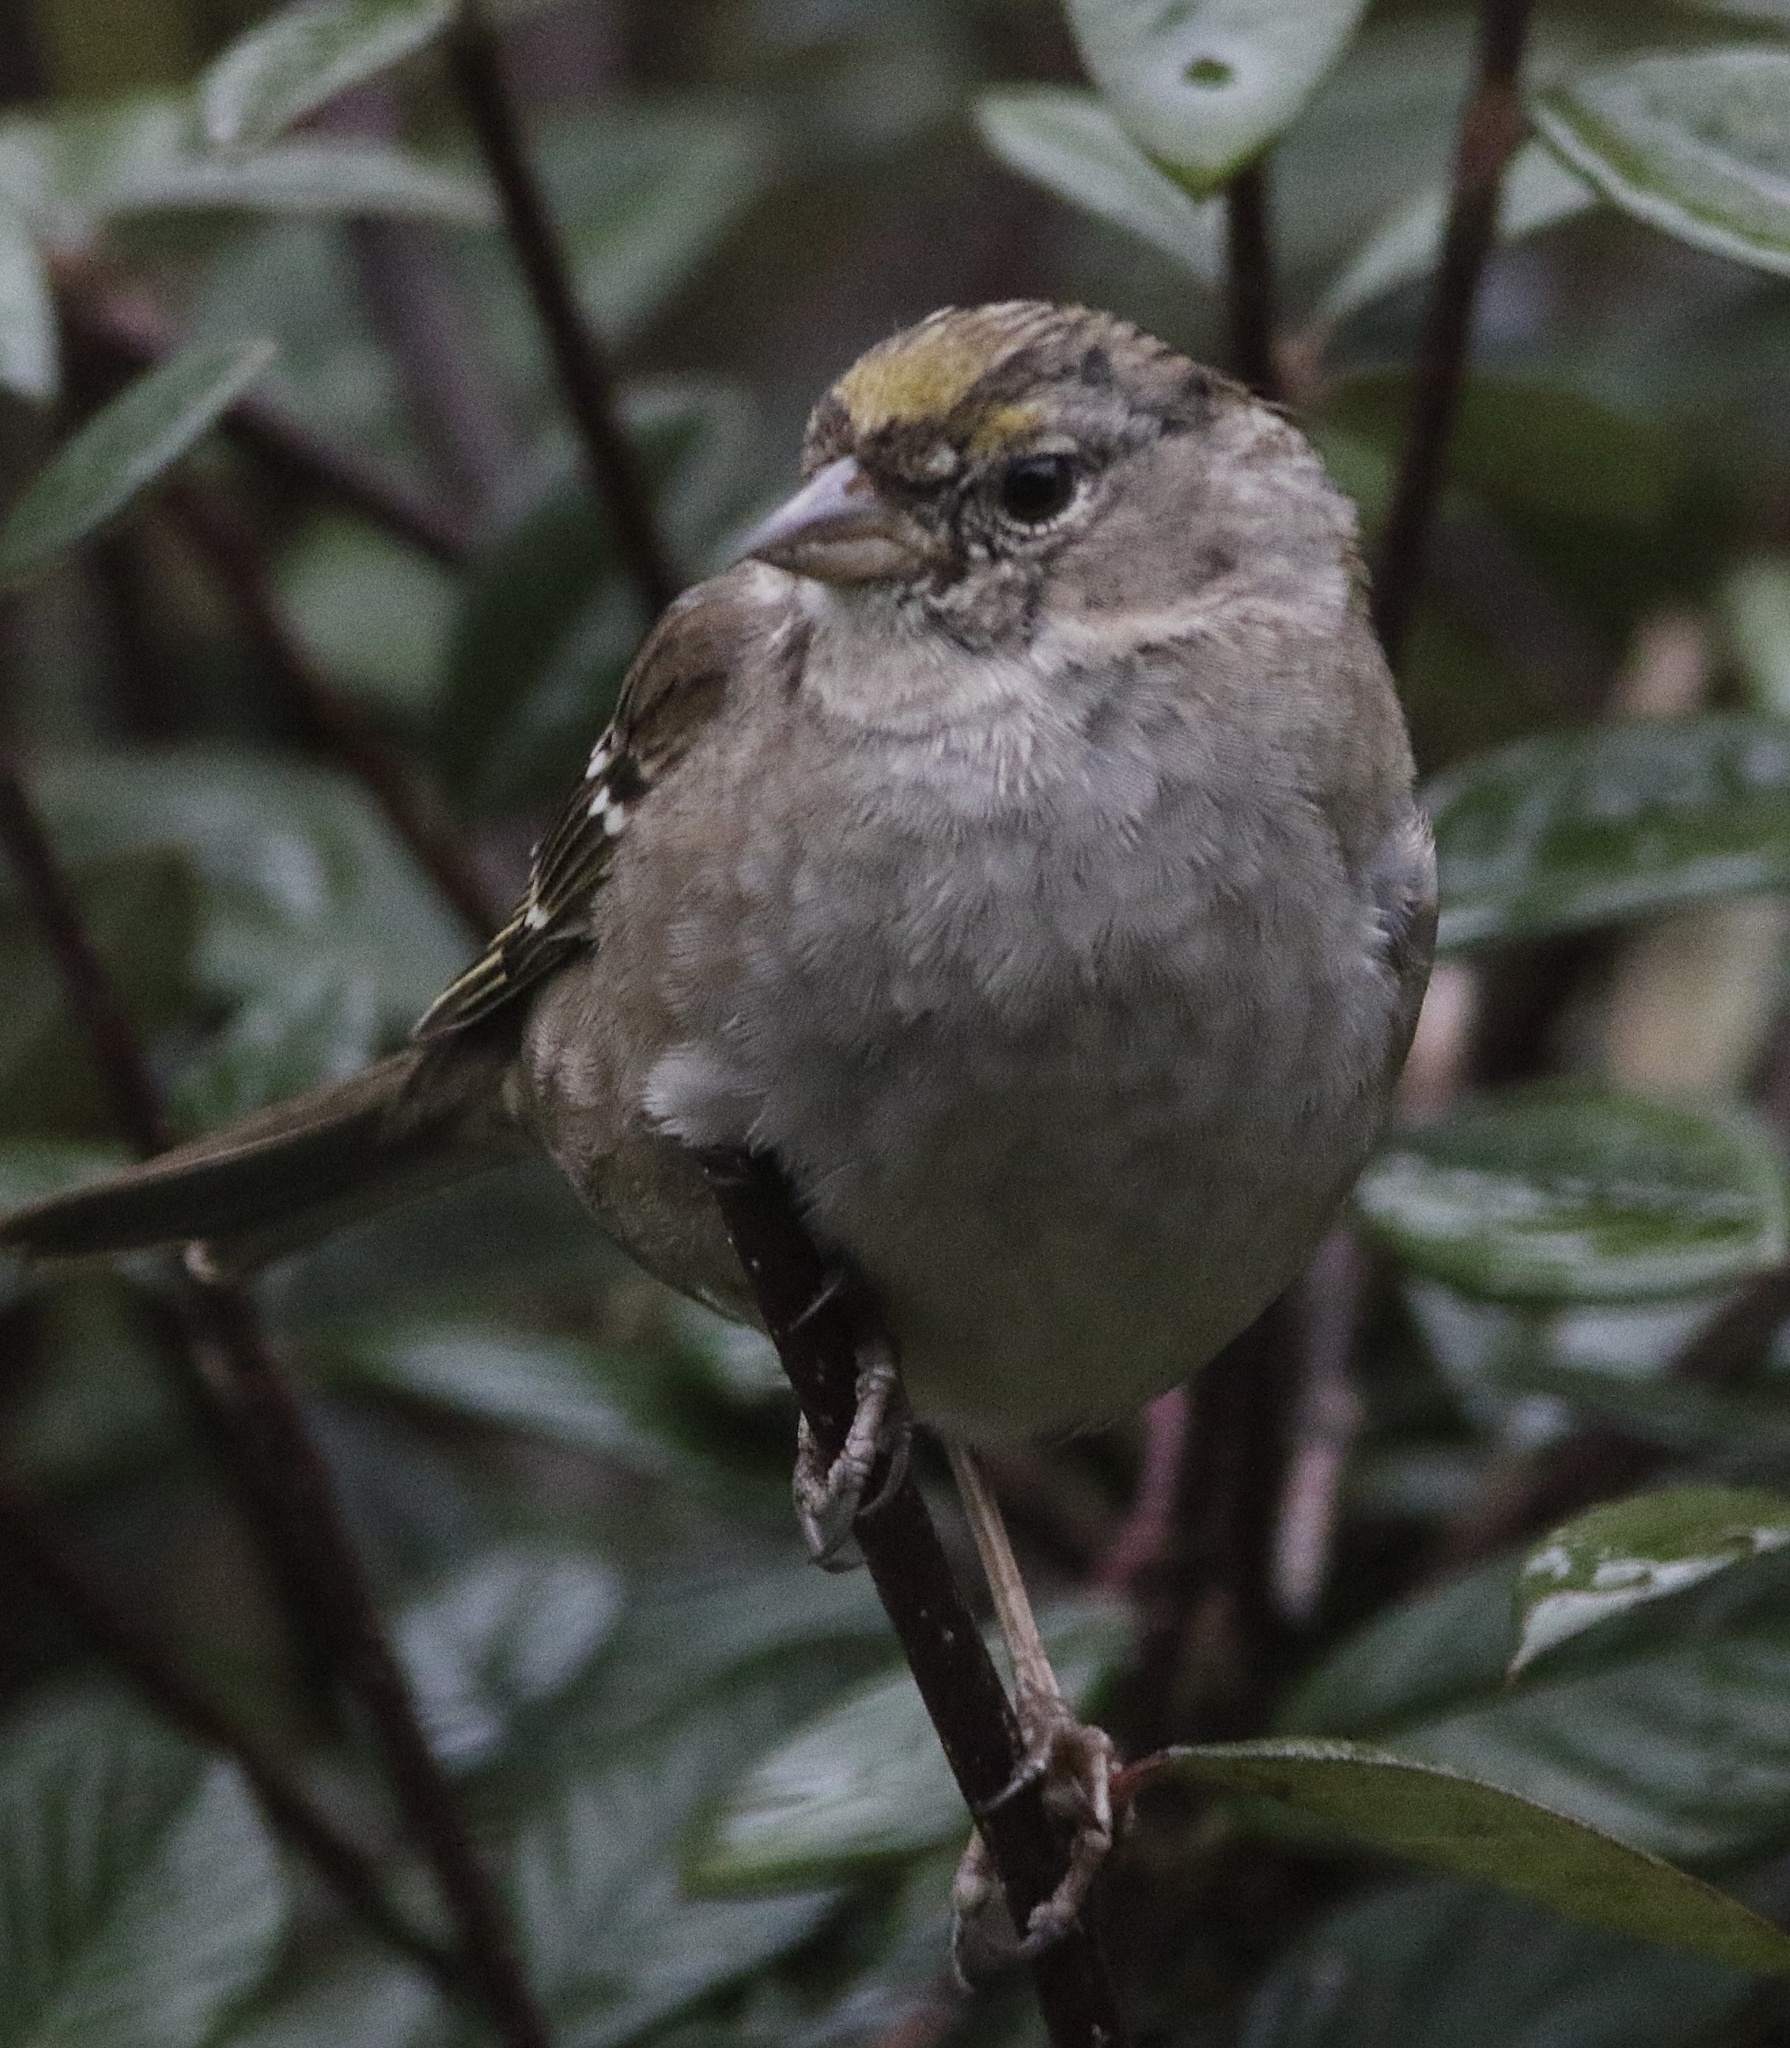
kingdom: Animalia
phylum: Chordata
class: Aves
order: Passeriformes
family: Passerellidae
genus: Zonotrichia
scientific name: Zonotrichia atricapilla
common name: Golden-crowned sparrow
